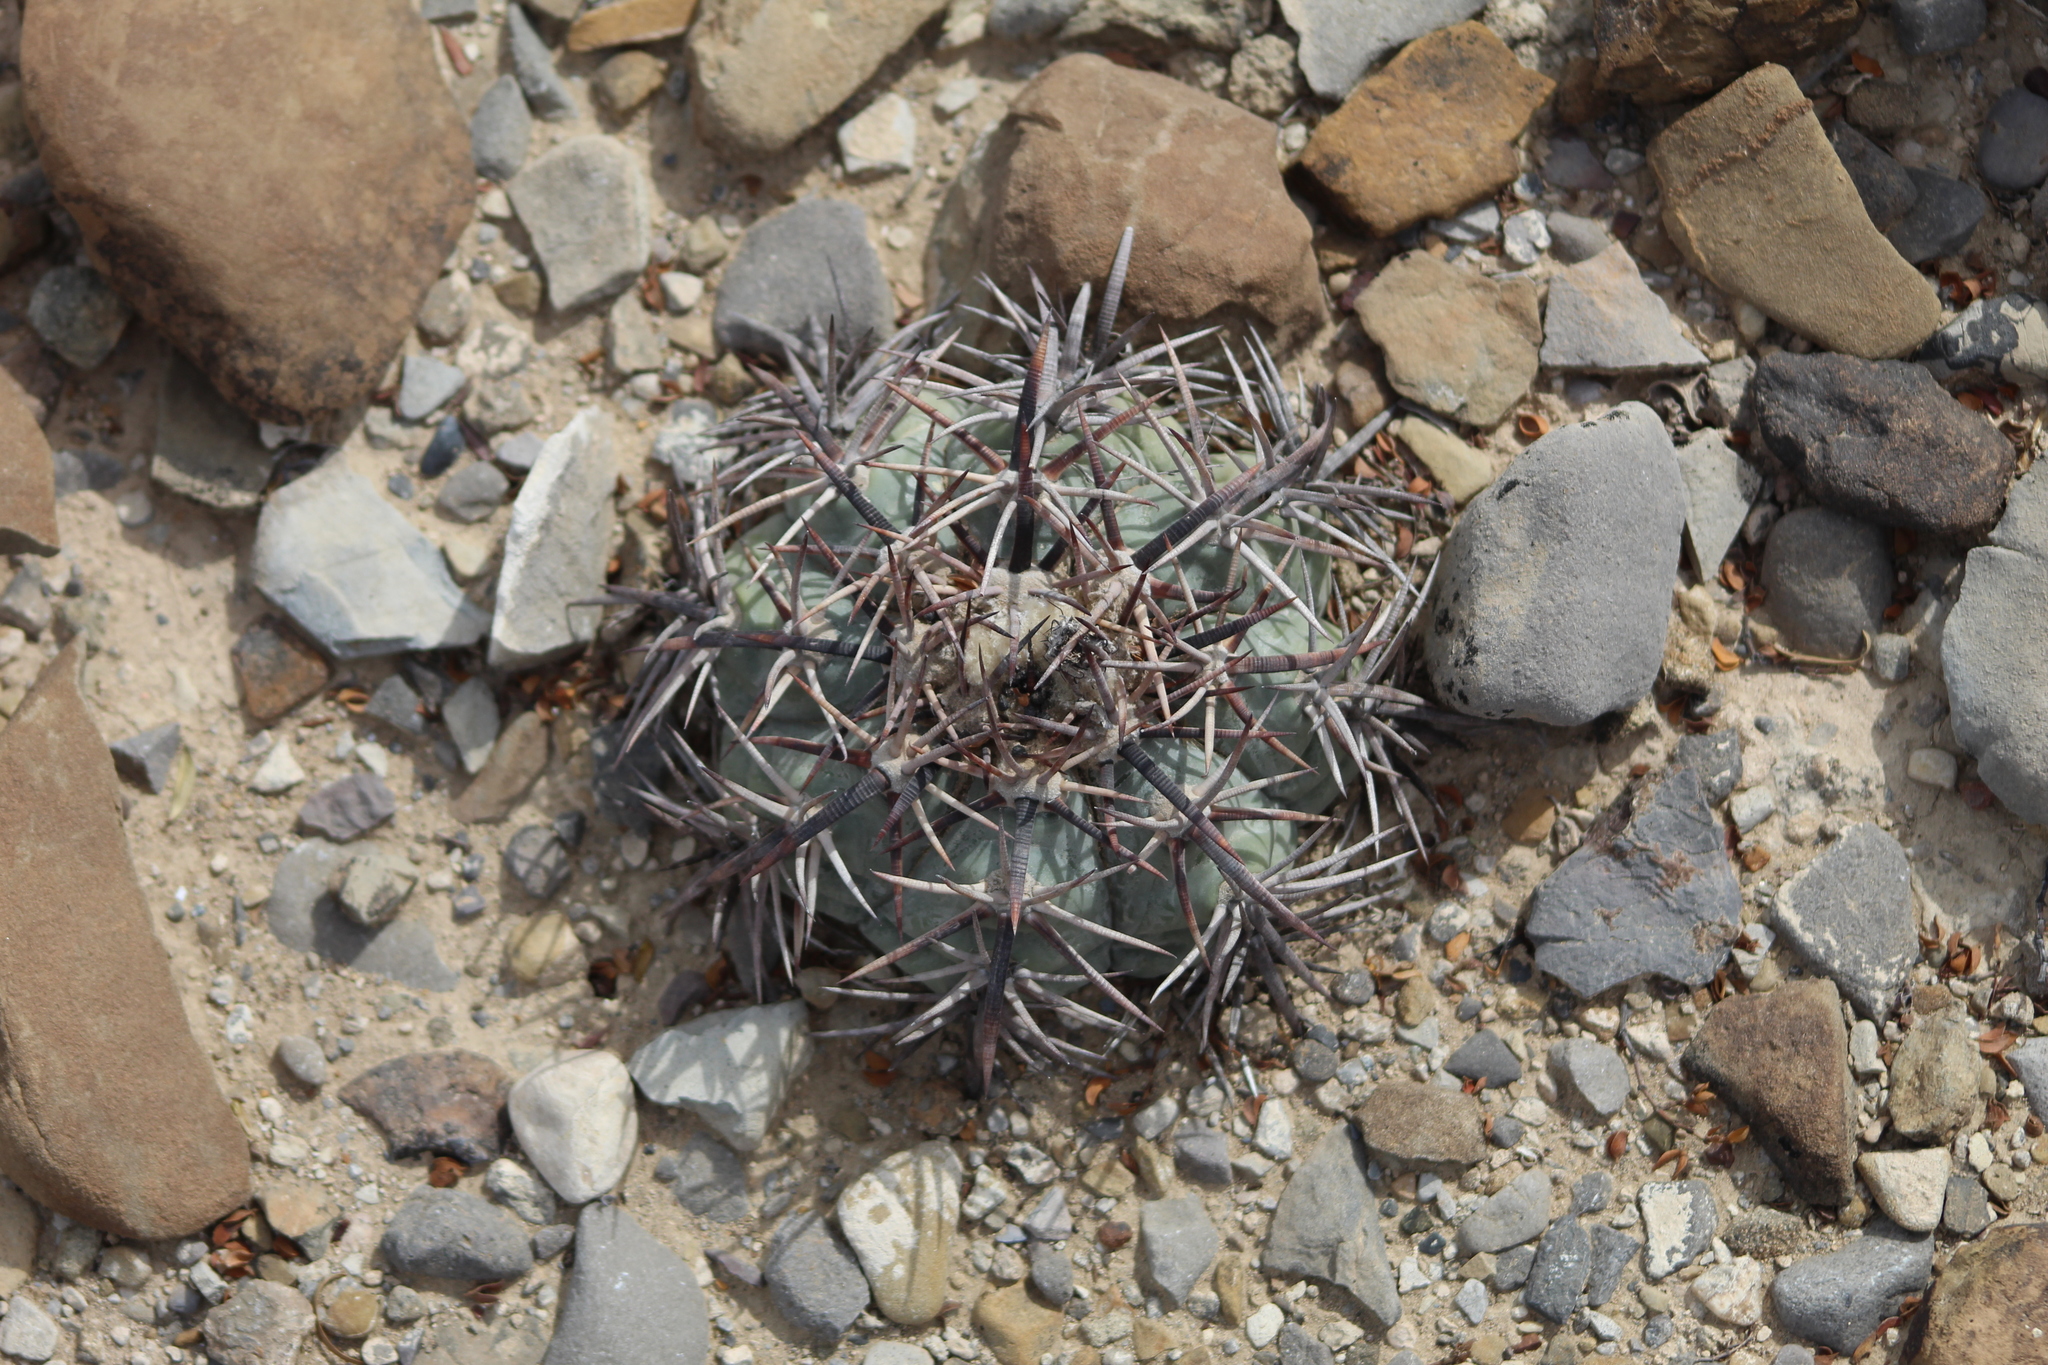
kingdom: Plantae
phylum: Tracheophyta
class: Magnoliopsida
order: Caryophyllales
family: Cactaceae
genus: Echinocactus
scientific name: Echinocactus horizonthalonius
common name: Devilshead
